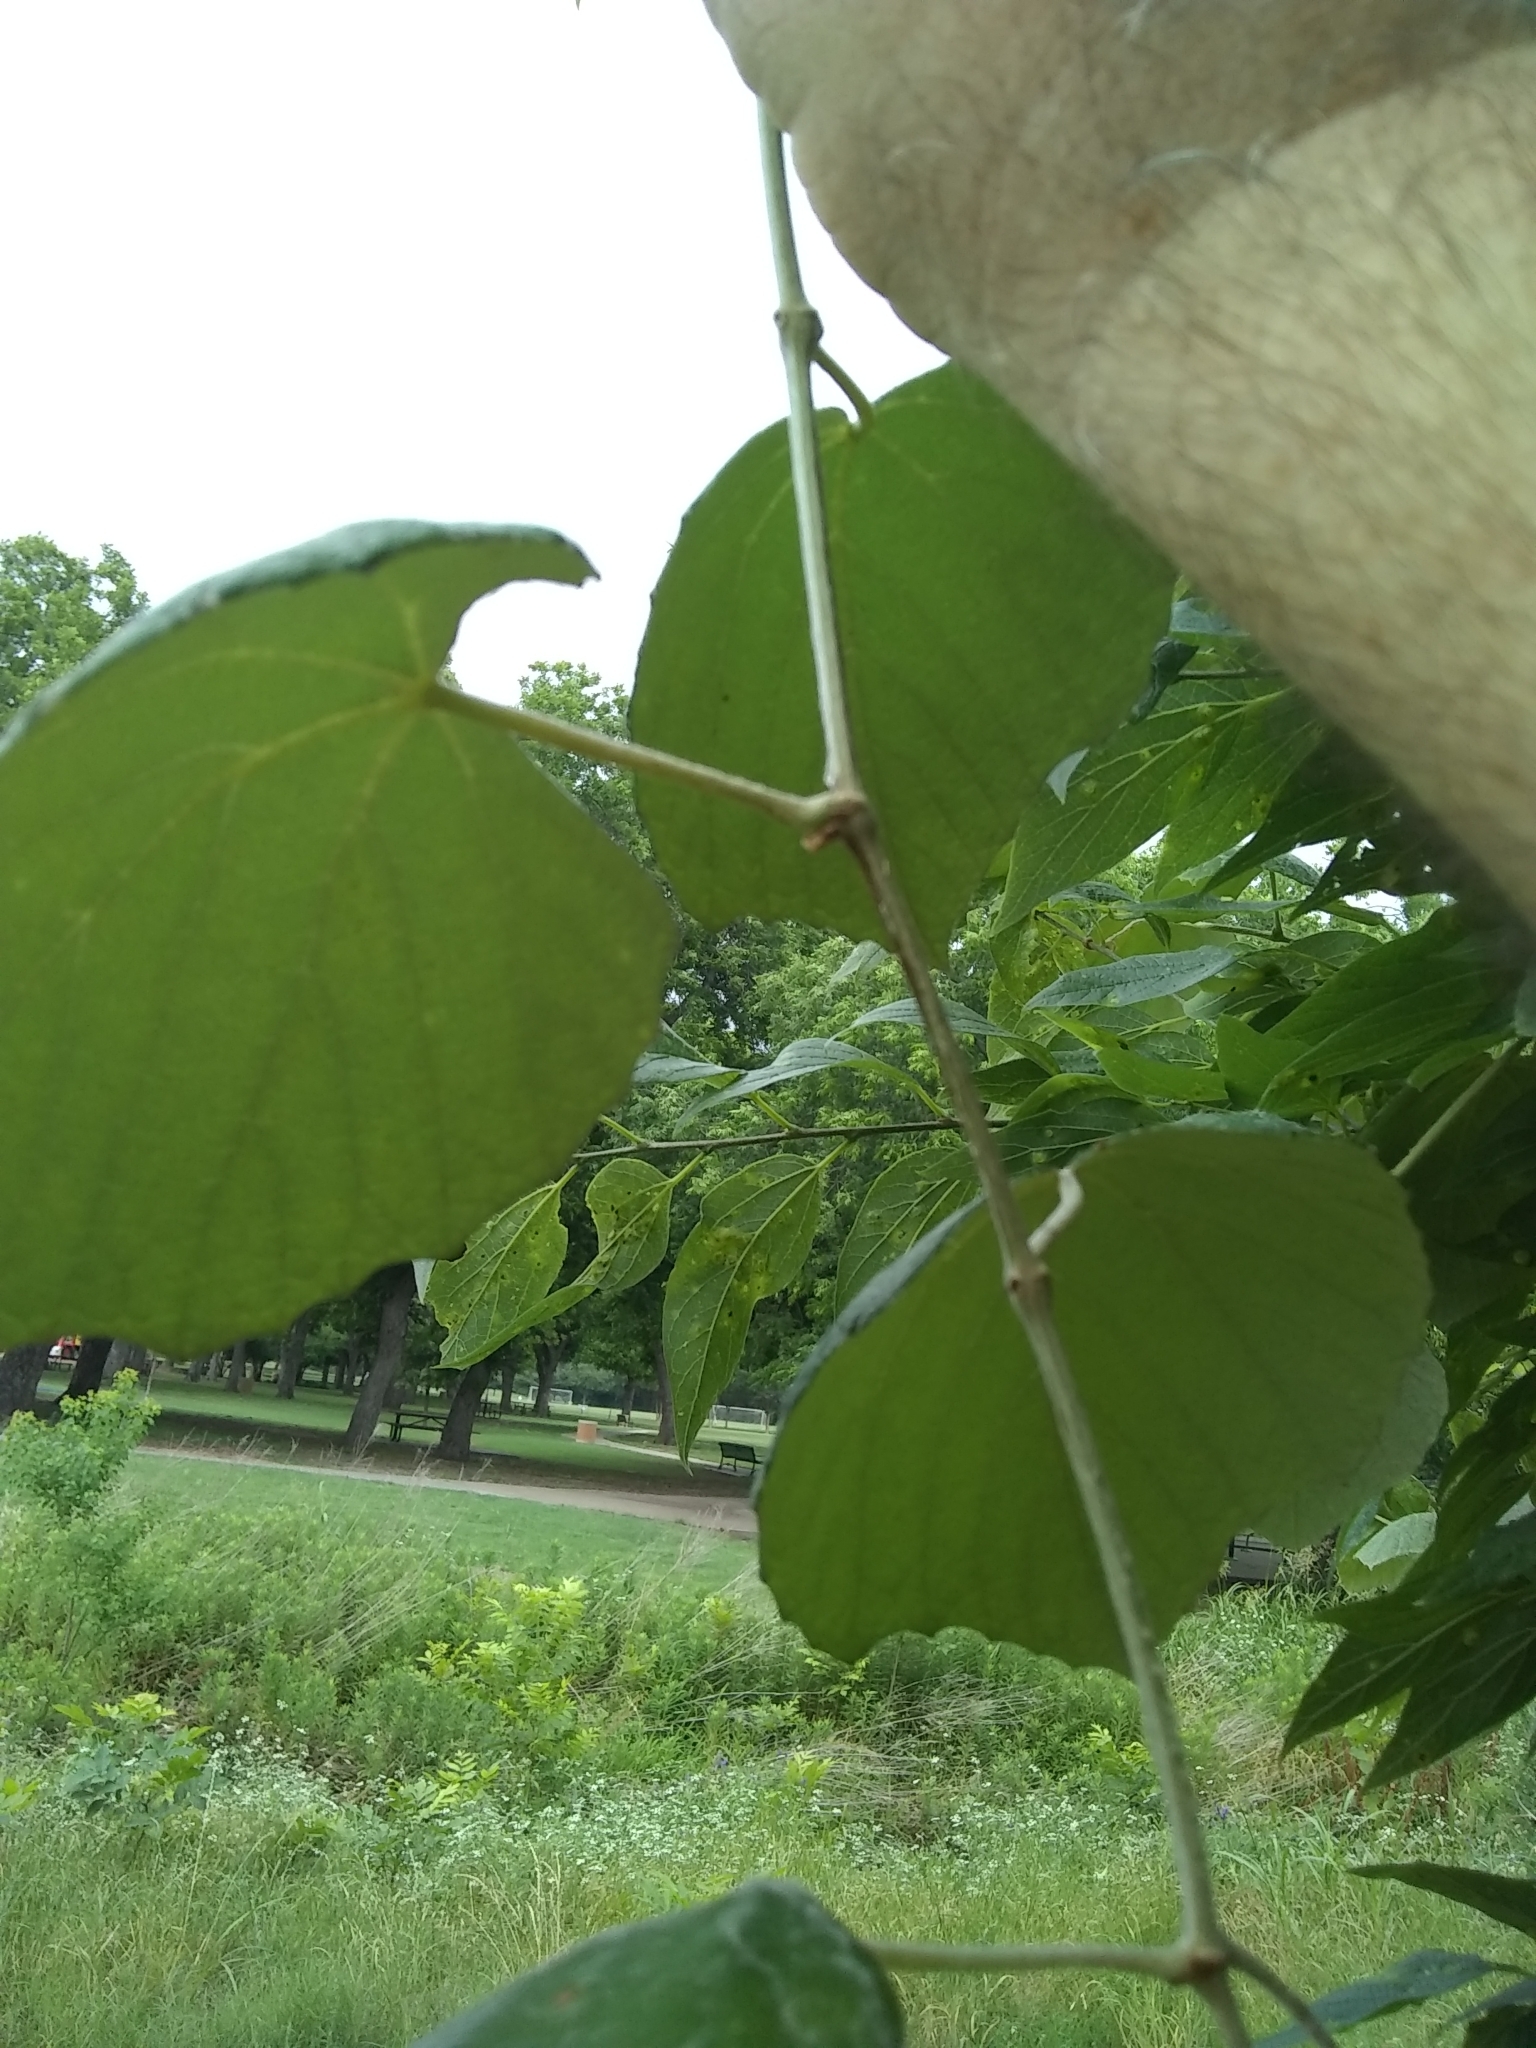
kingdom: Plantae
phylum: Tracheophyta
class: Magnoliopsida
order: Vitales
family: Vitaceae
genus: Vitis
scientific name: Vitis mustangensis
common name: Mustang grape
